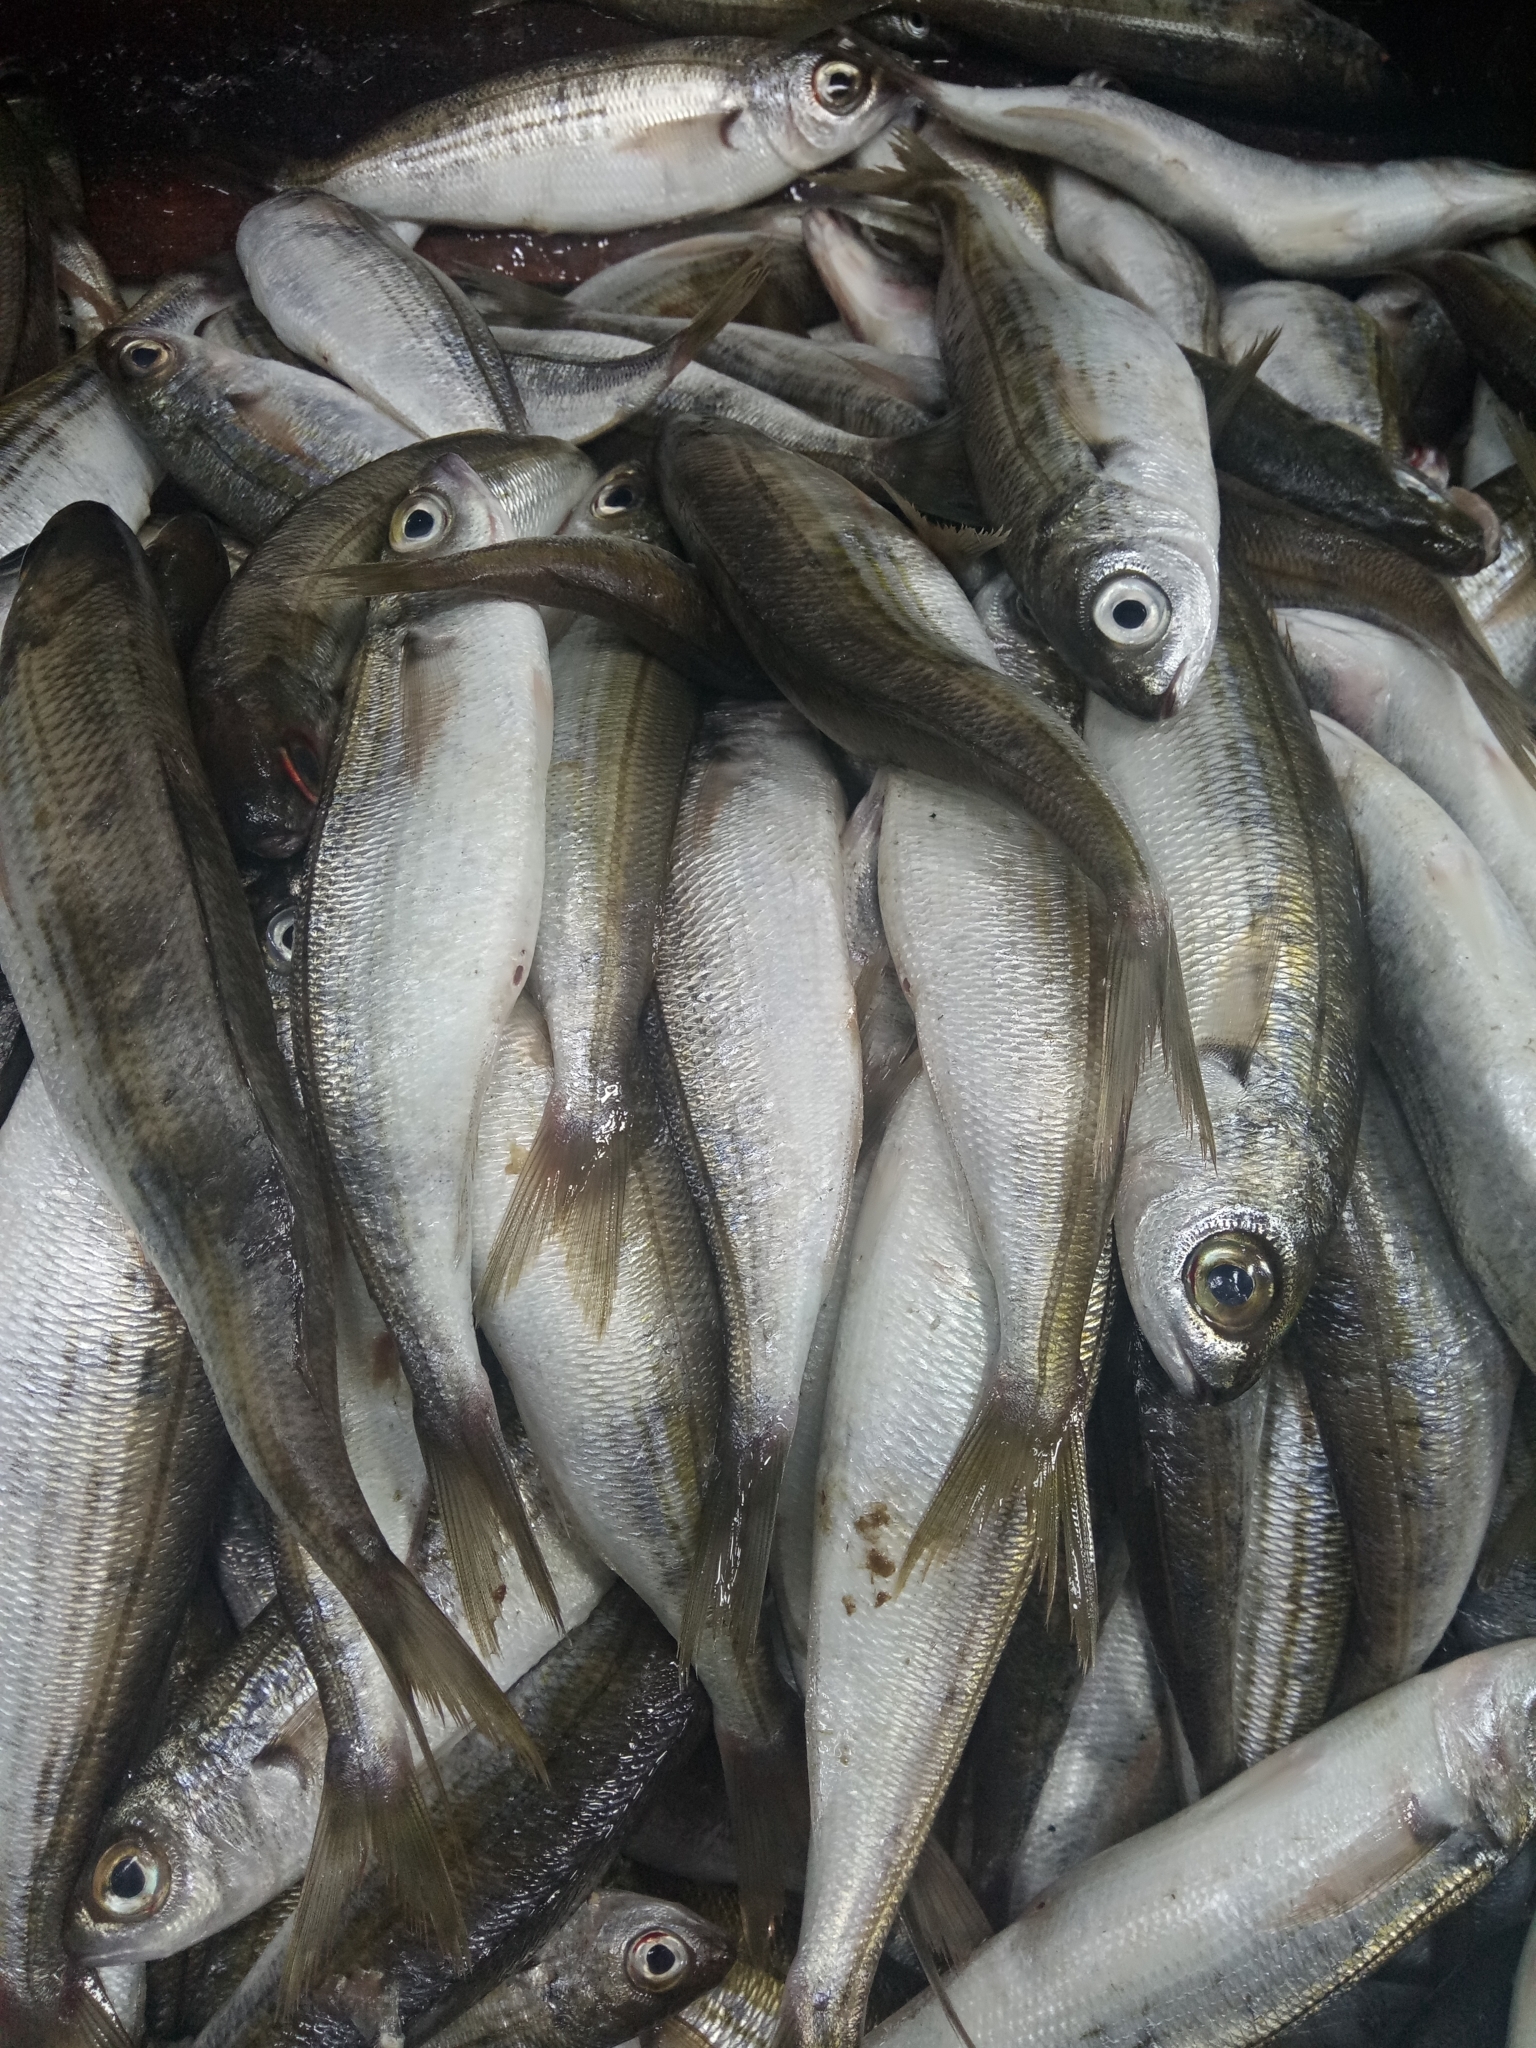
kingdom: Animalia
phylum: Chordata
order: Perciformes
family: Sparidae
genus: Boops
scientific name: Boops boops
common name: Bogue
